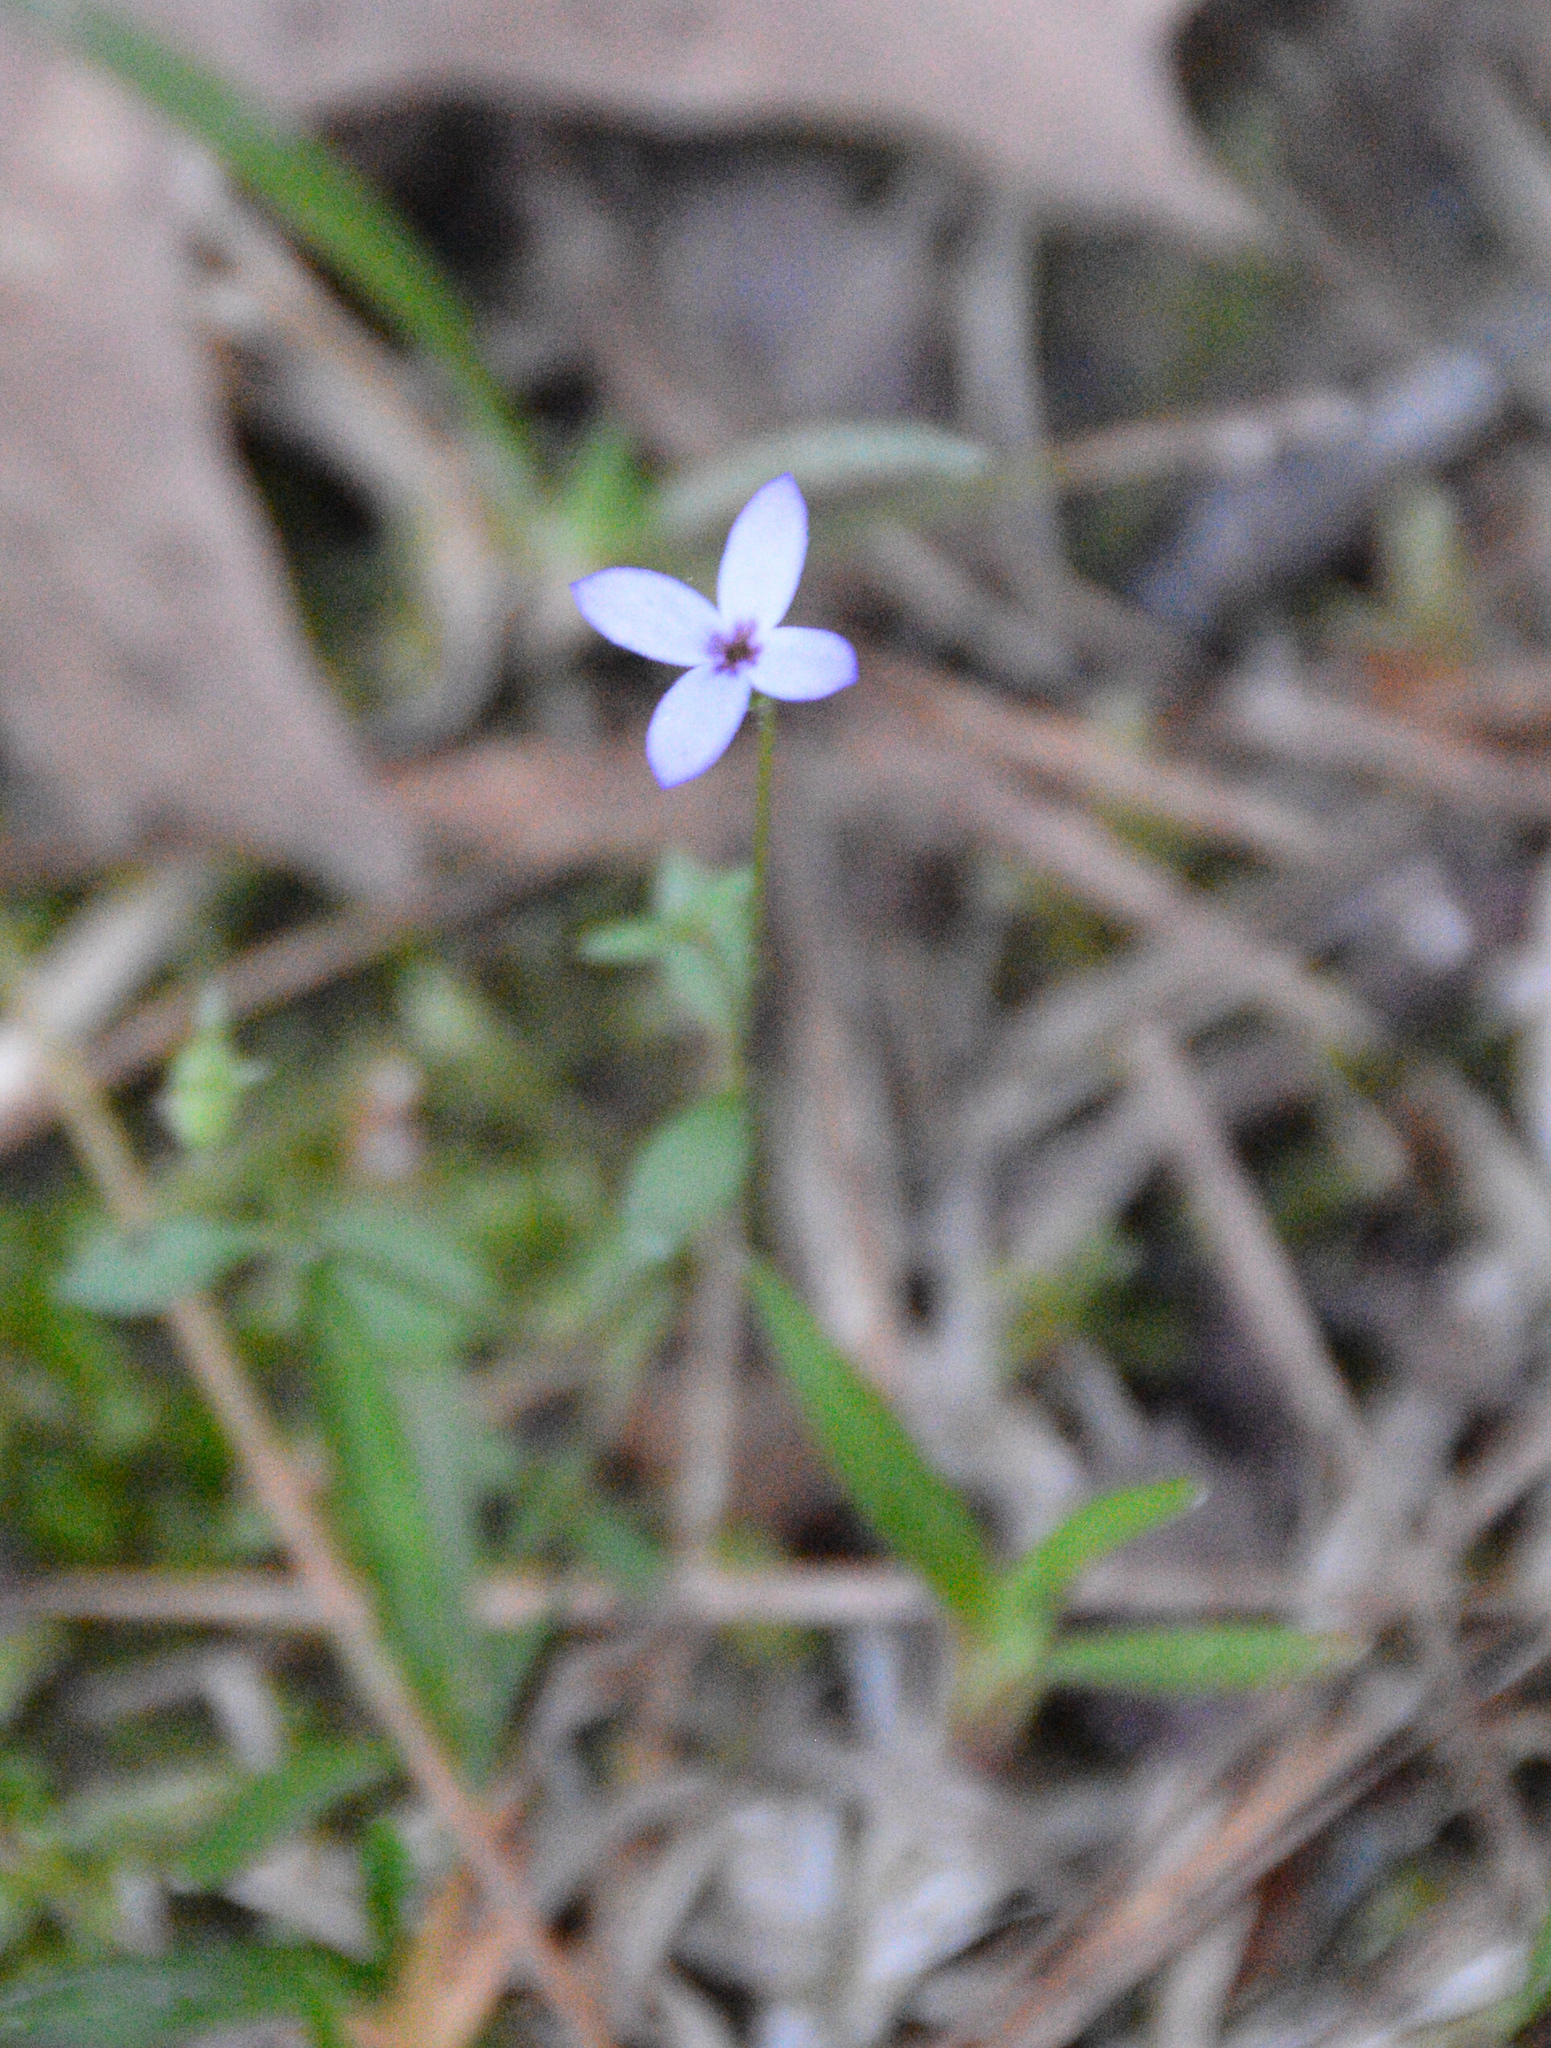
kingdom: Plantae
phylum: Tracheophyta
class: Magnoliopsida
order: Gentianales
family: Rubiaceae
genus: Houstonia
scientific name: Houstonia pusilla
